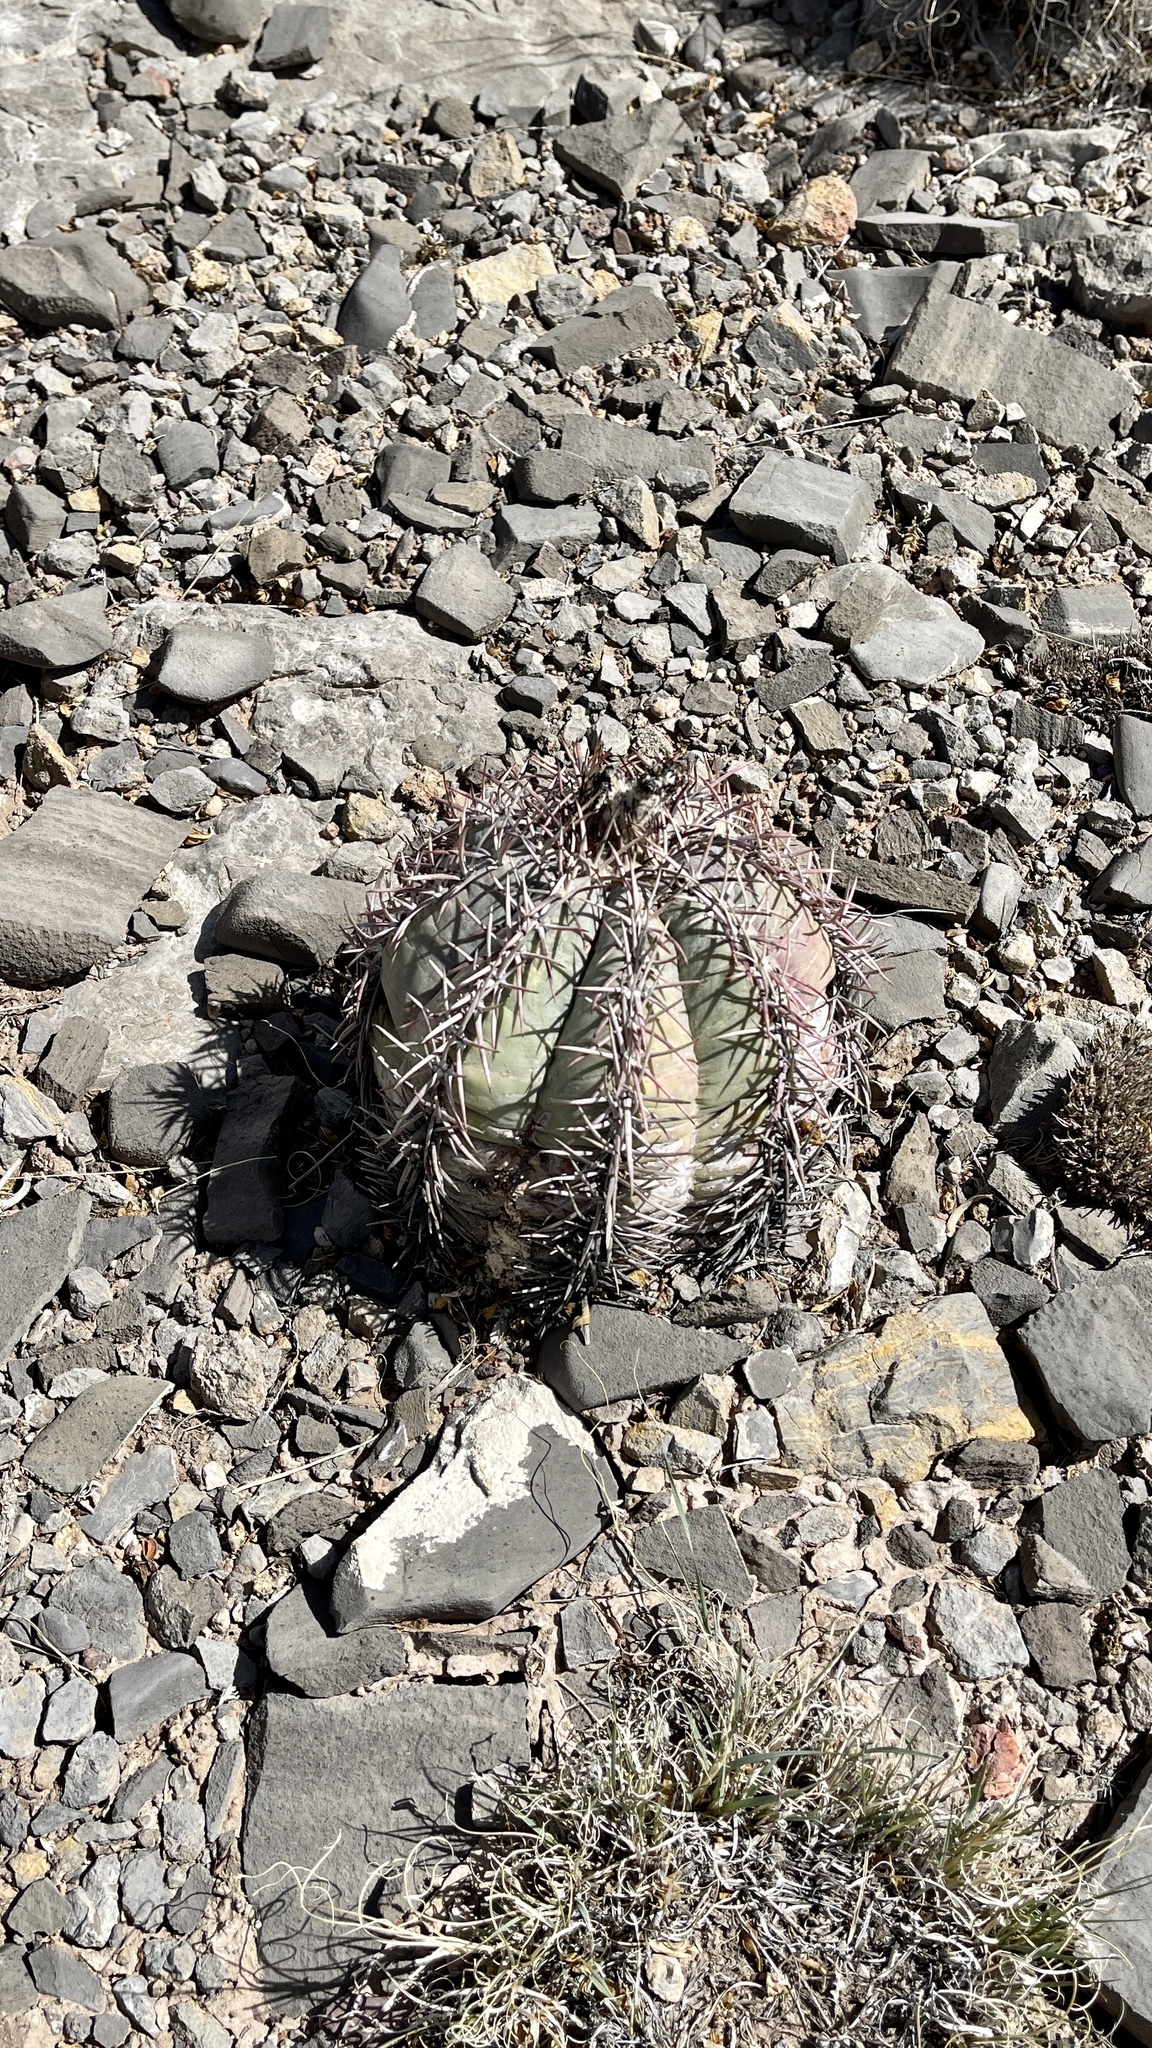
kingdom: Plantae
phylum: Tracheophyta
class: Magnoliopsida
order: Caryophyllales
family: Cactaceae
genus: Echinocactus
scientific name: Echinocactus horizonthalonius
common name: Devilshead
